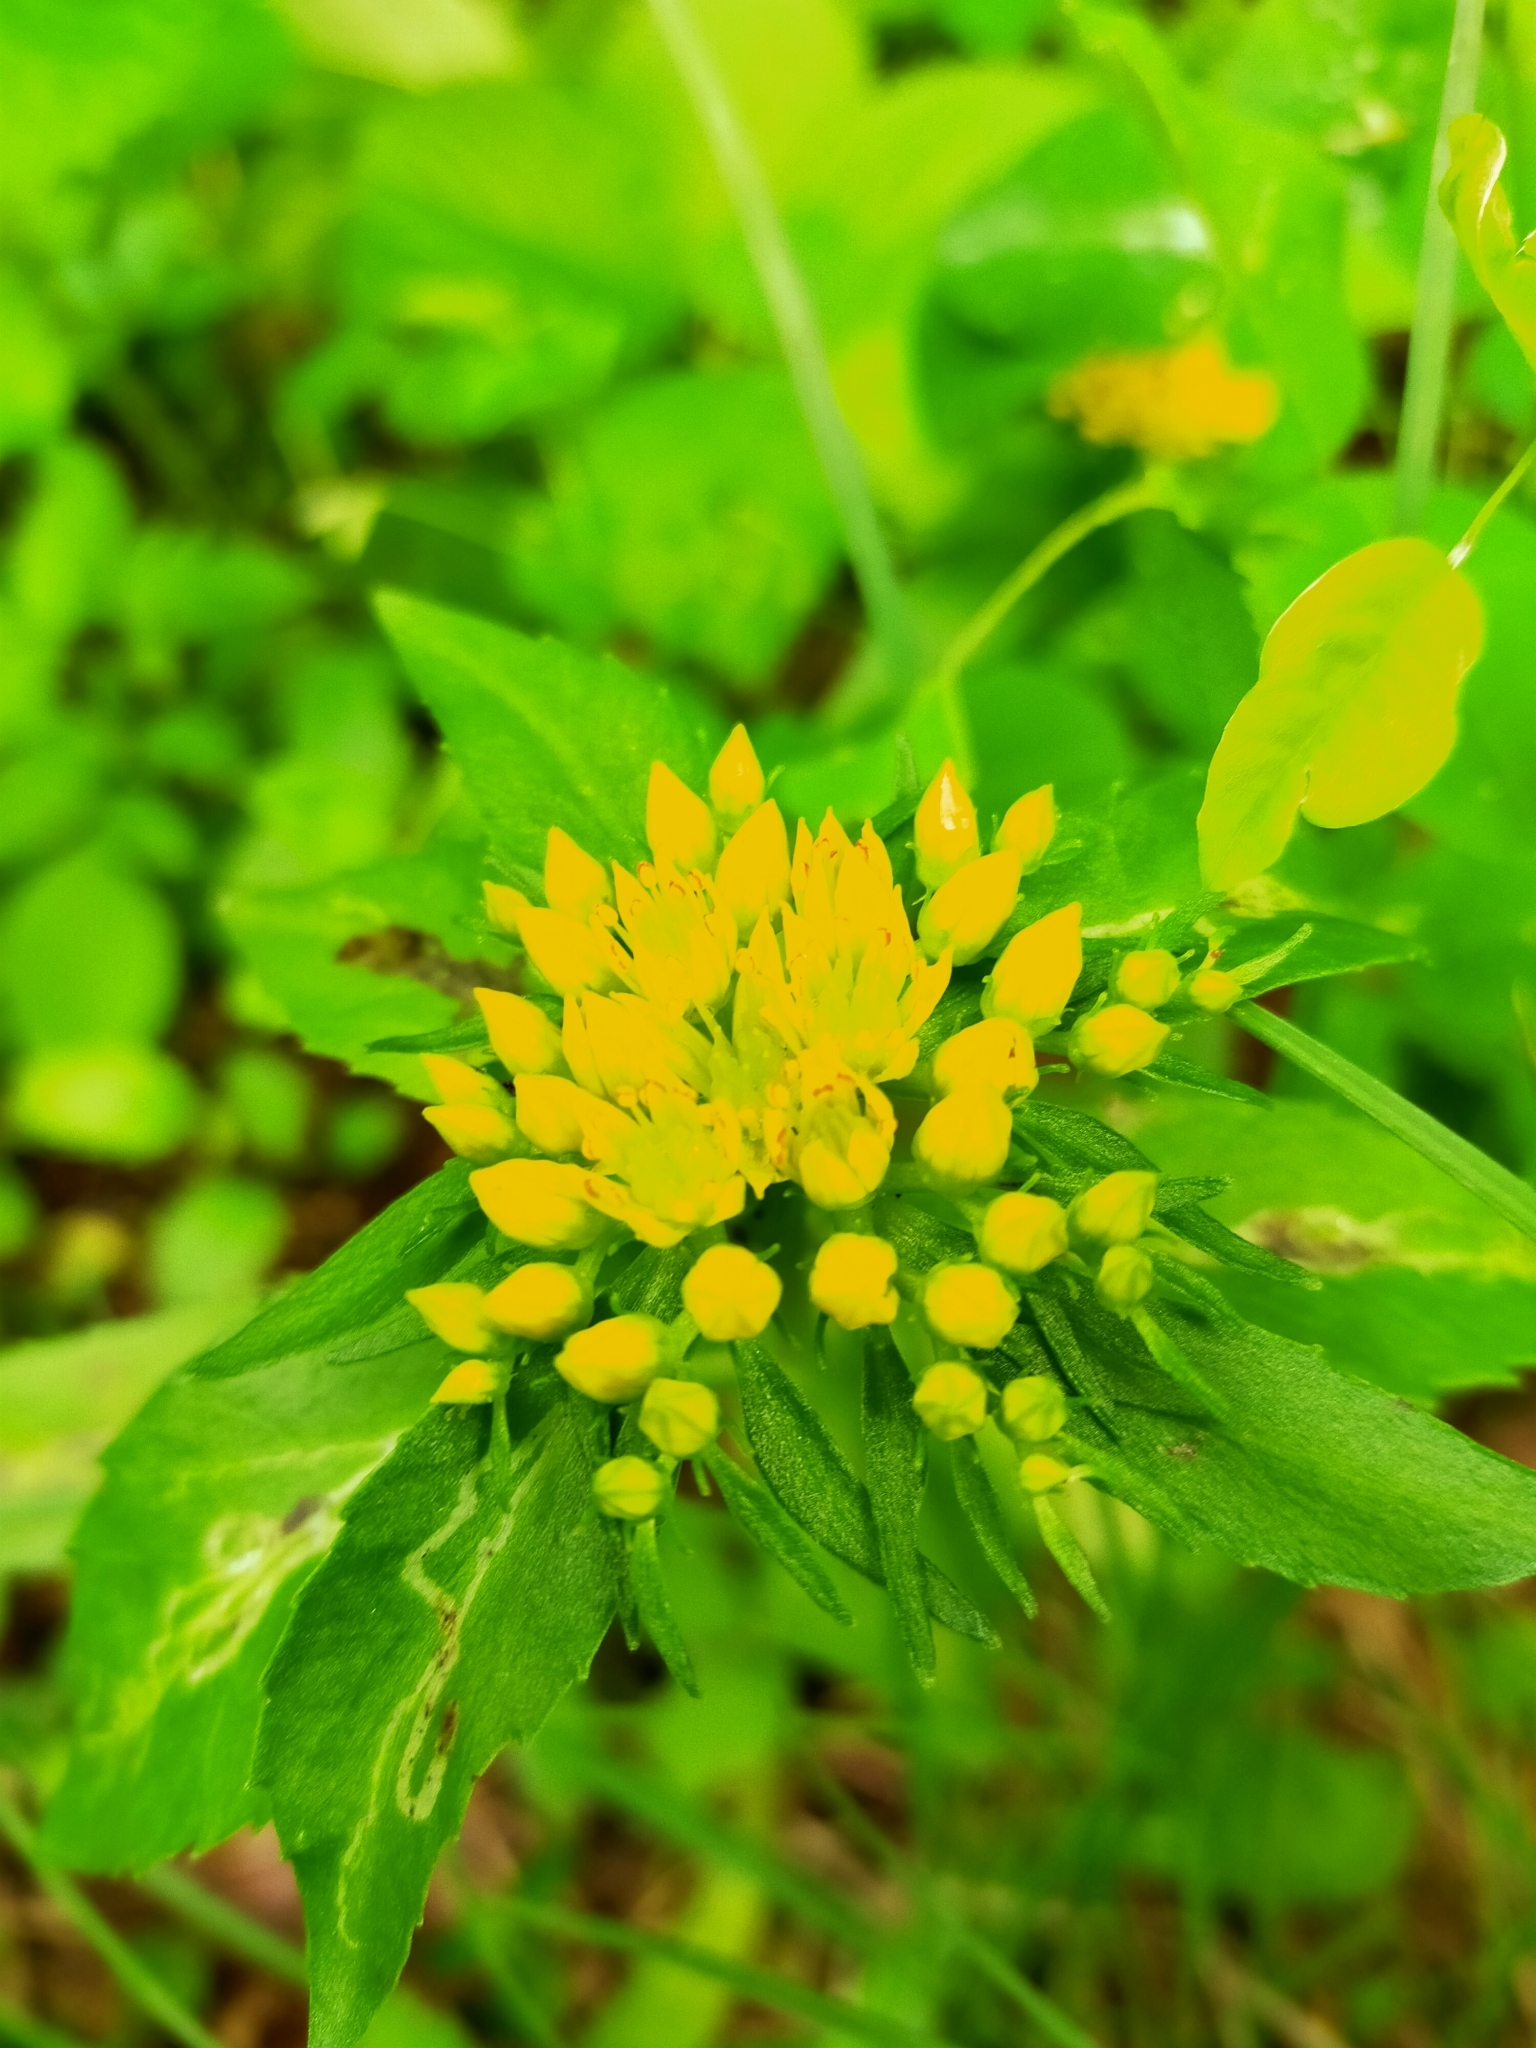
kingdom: Plantae
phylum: Tracheophyta
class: Magnoliopsida
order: Saxifragales
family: Crassulaceae
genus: Phedimus
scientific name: Phedimus aizoon
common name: Orpin aizoon
